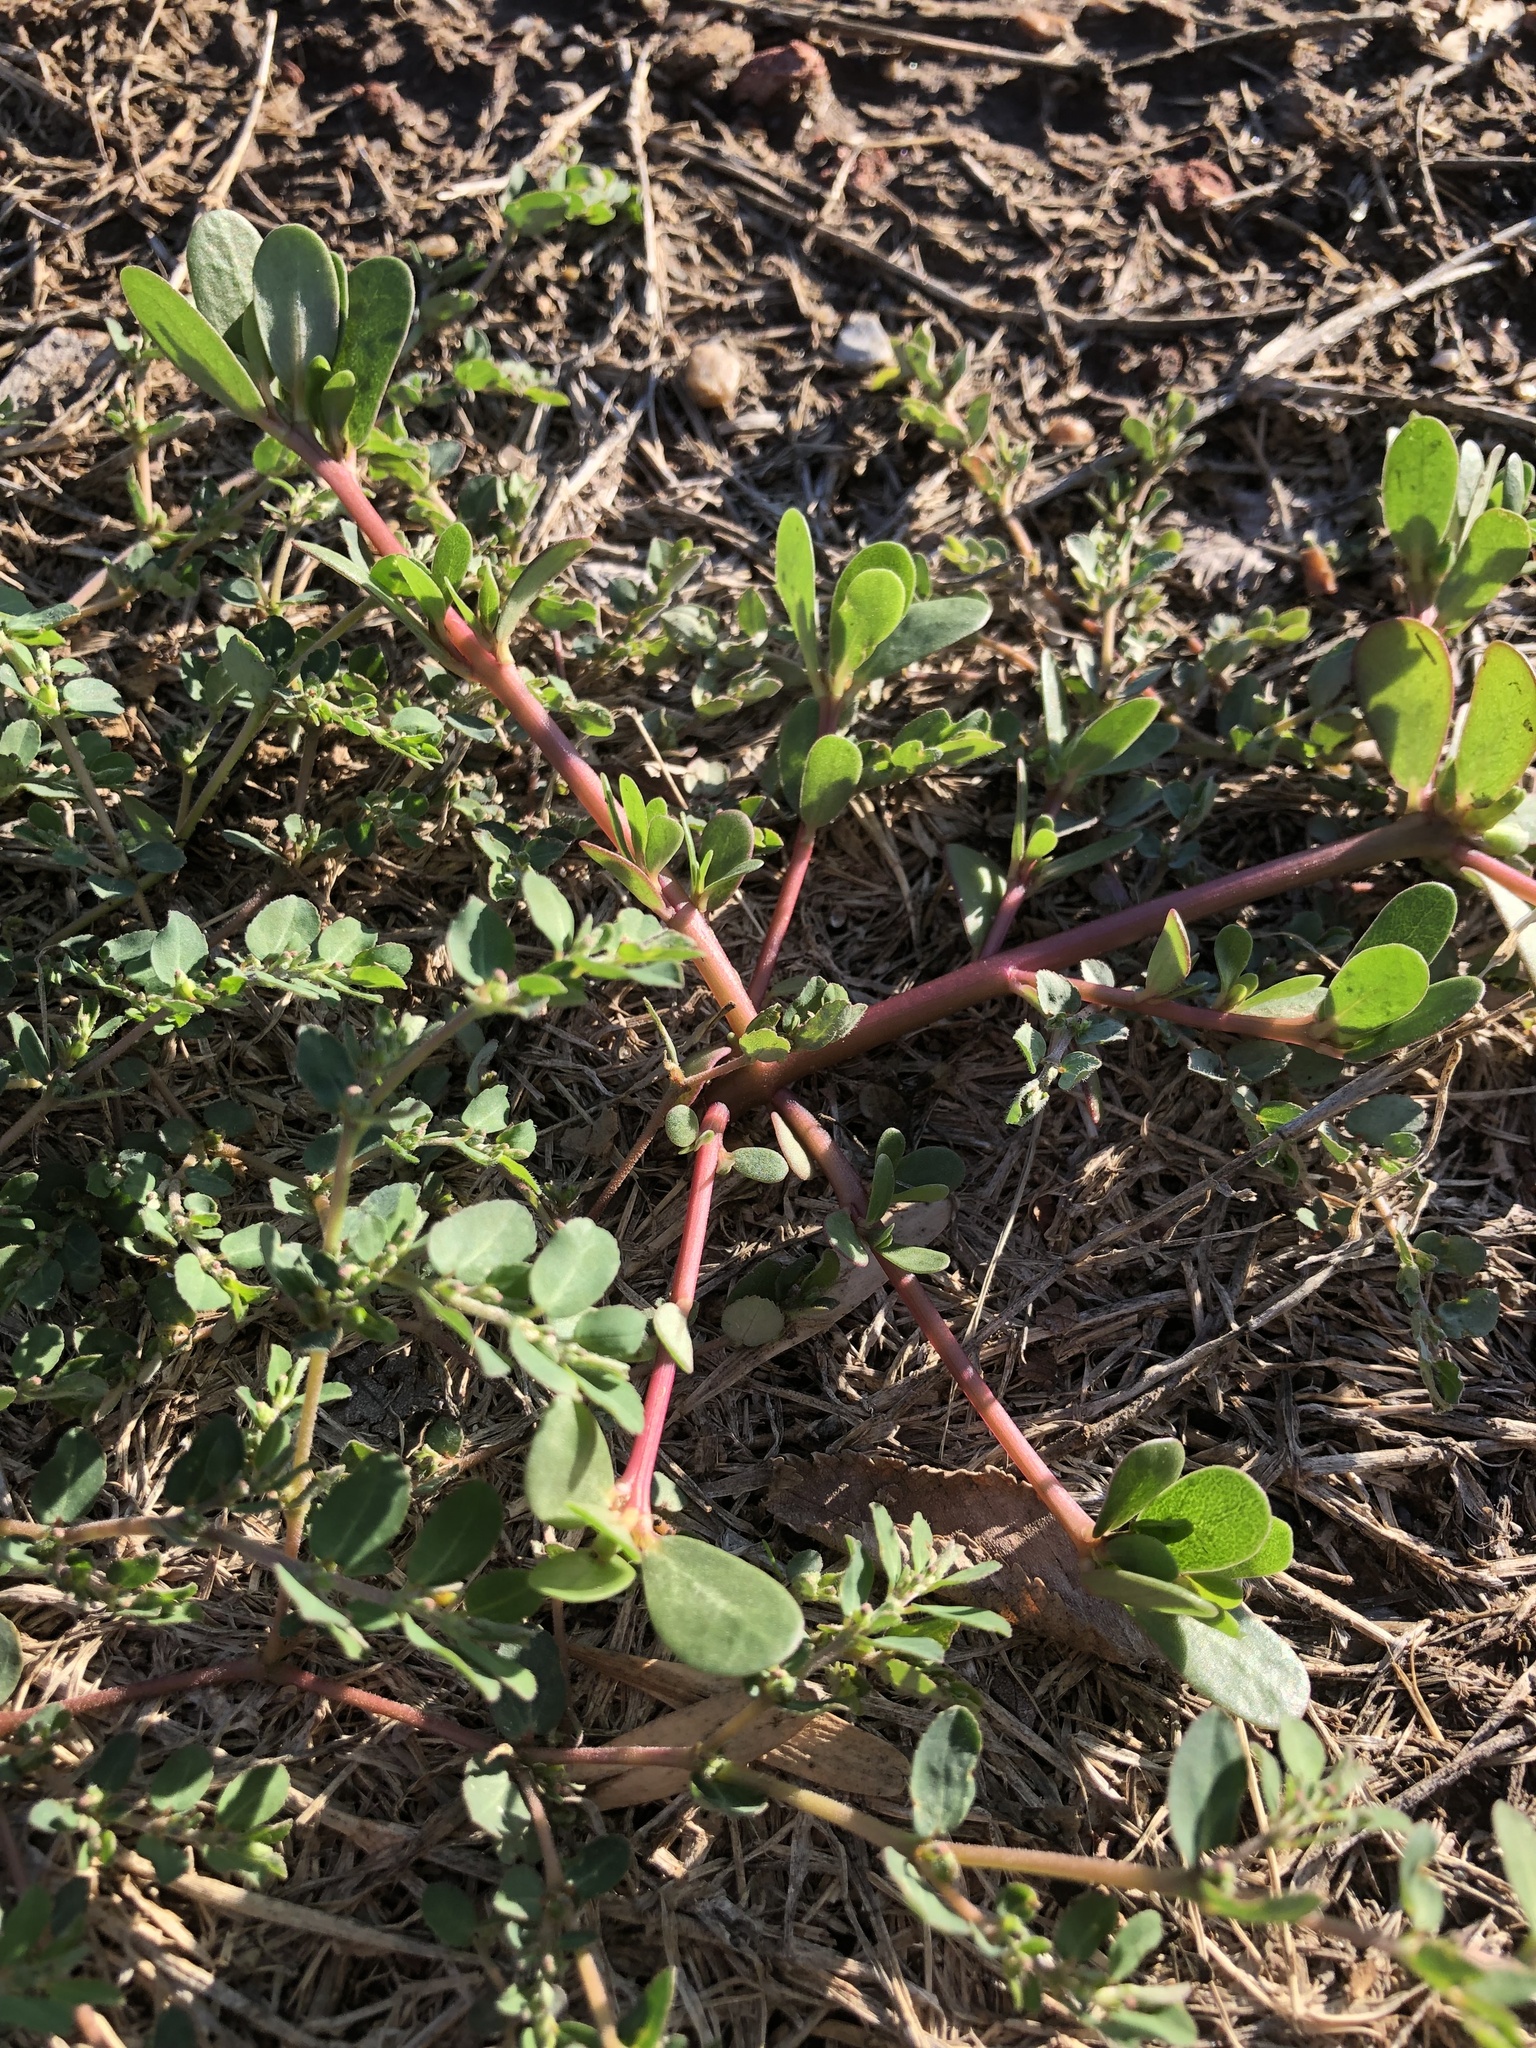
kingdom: Plantae
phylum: Tracheophyta
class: Magnoliopsida
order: Caryophyllales
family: Portulacaceae
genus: Portulaca
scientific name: Portulaca oleracea
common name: Common purslane
